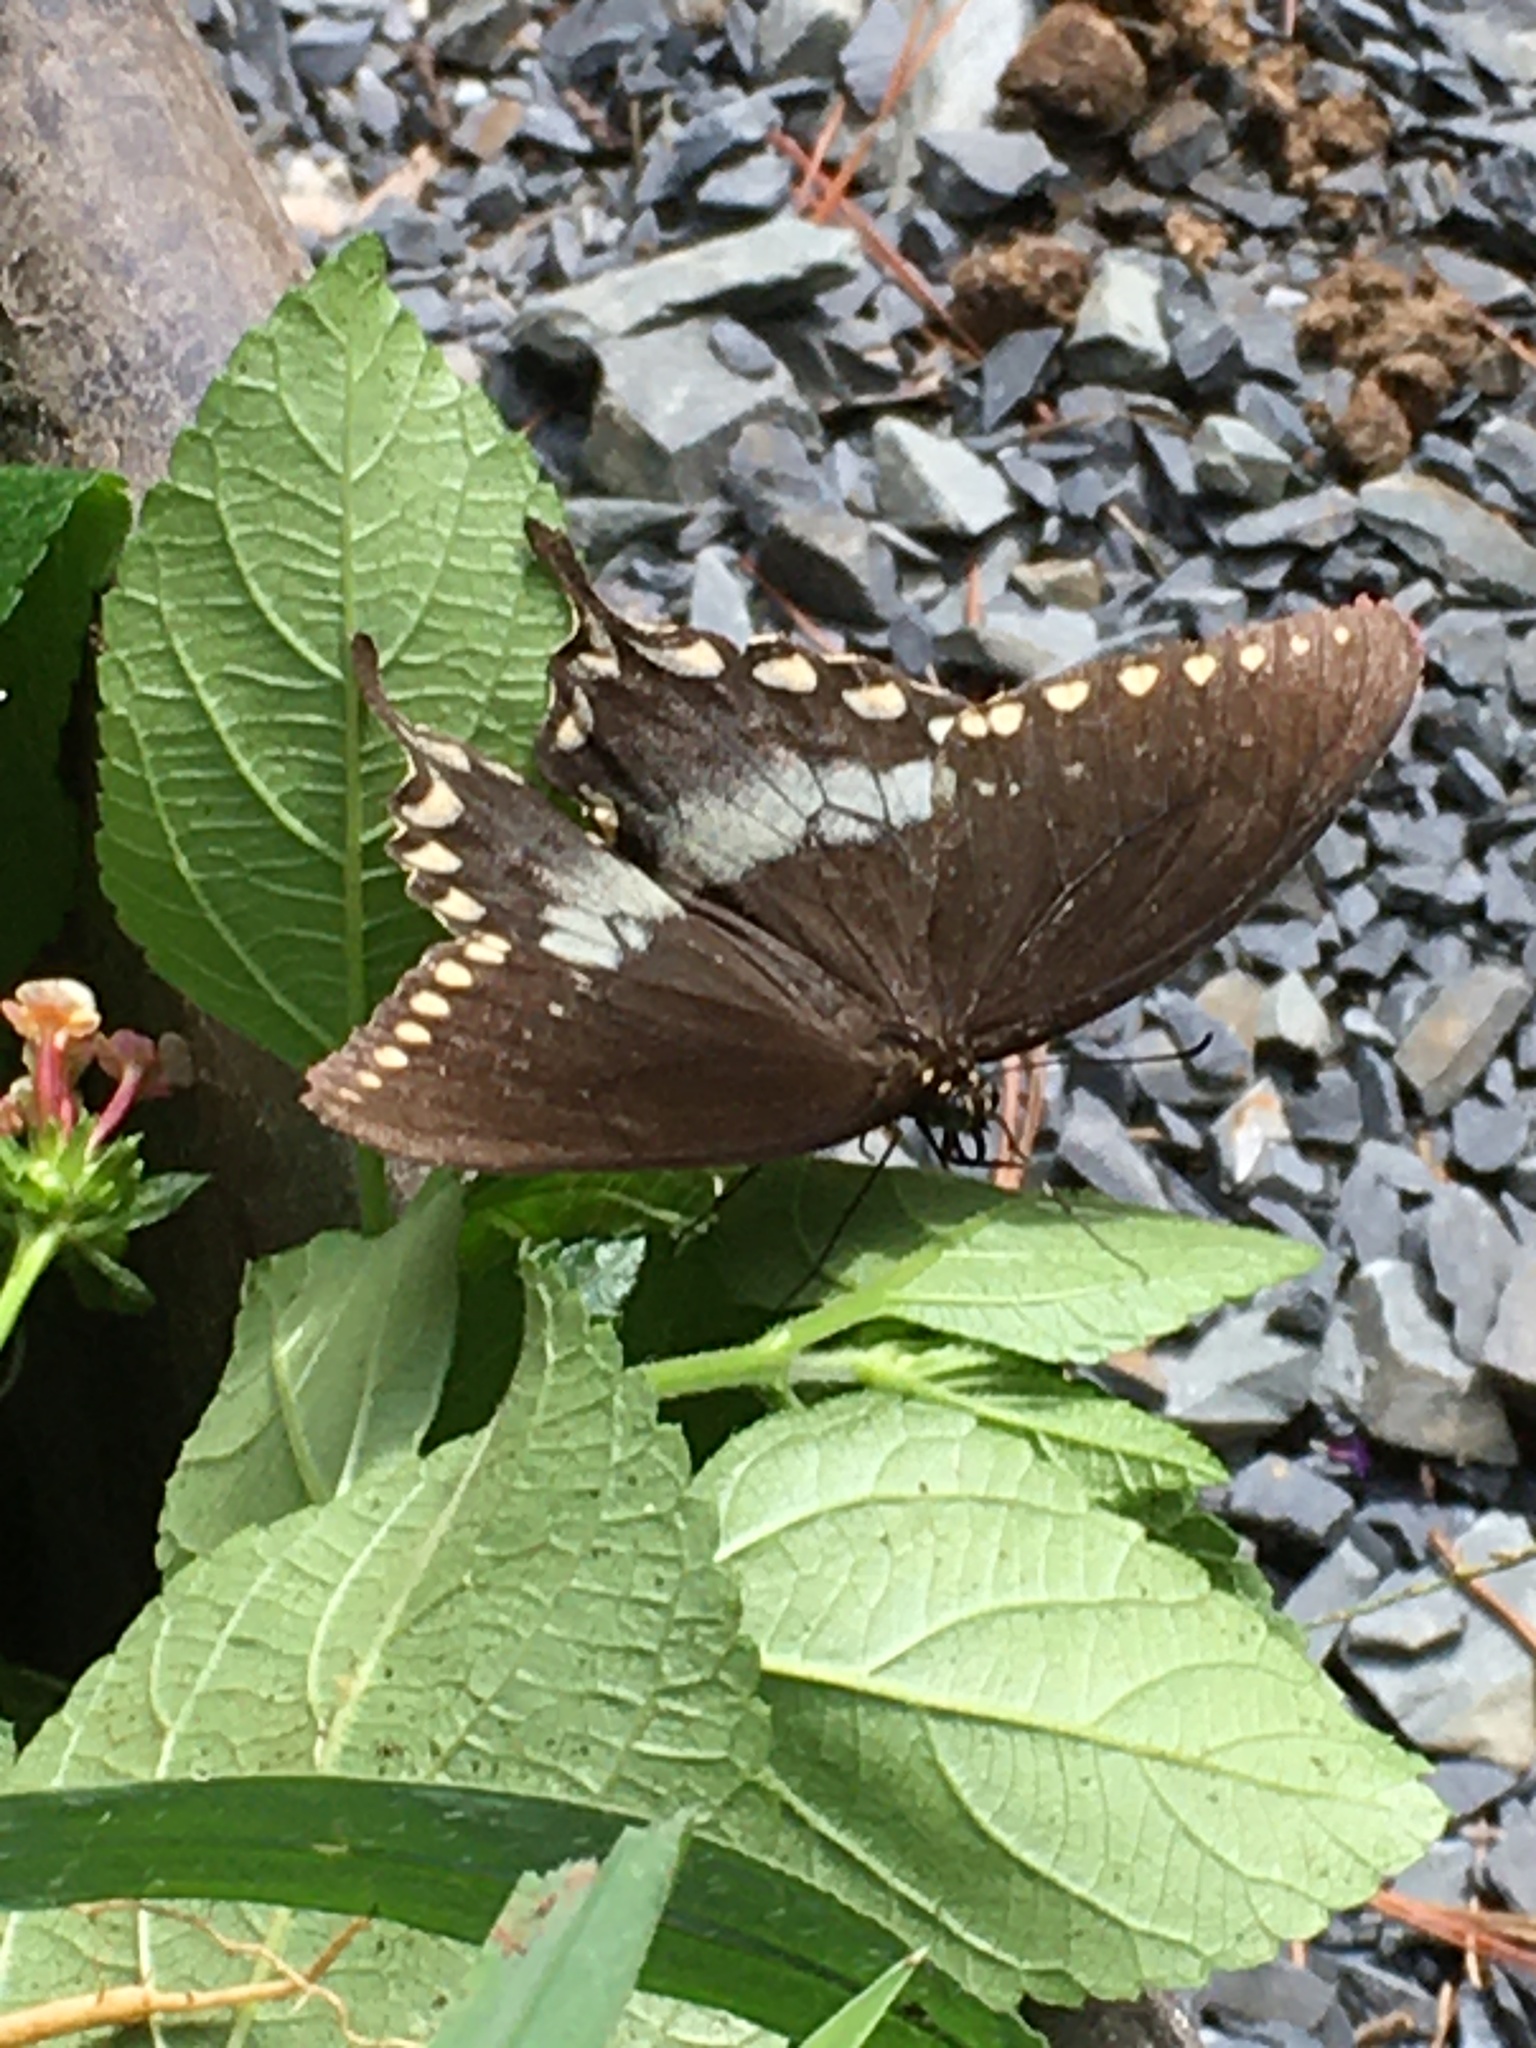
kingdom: Animalia
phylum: Arthropoda
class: Insecta
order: Lepidoptera
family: Papilionidae
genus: Papilio
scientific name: Papilio troilus
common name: Spicebush swallowtail
